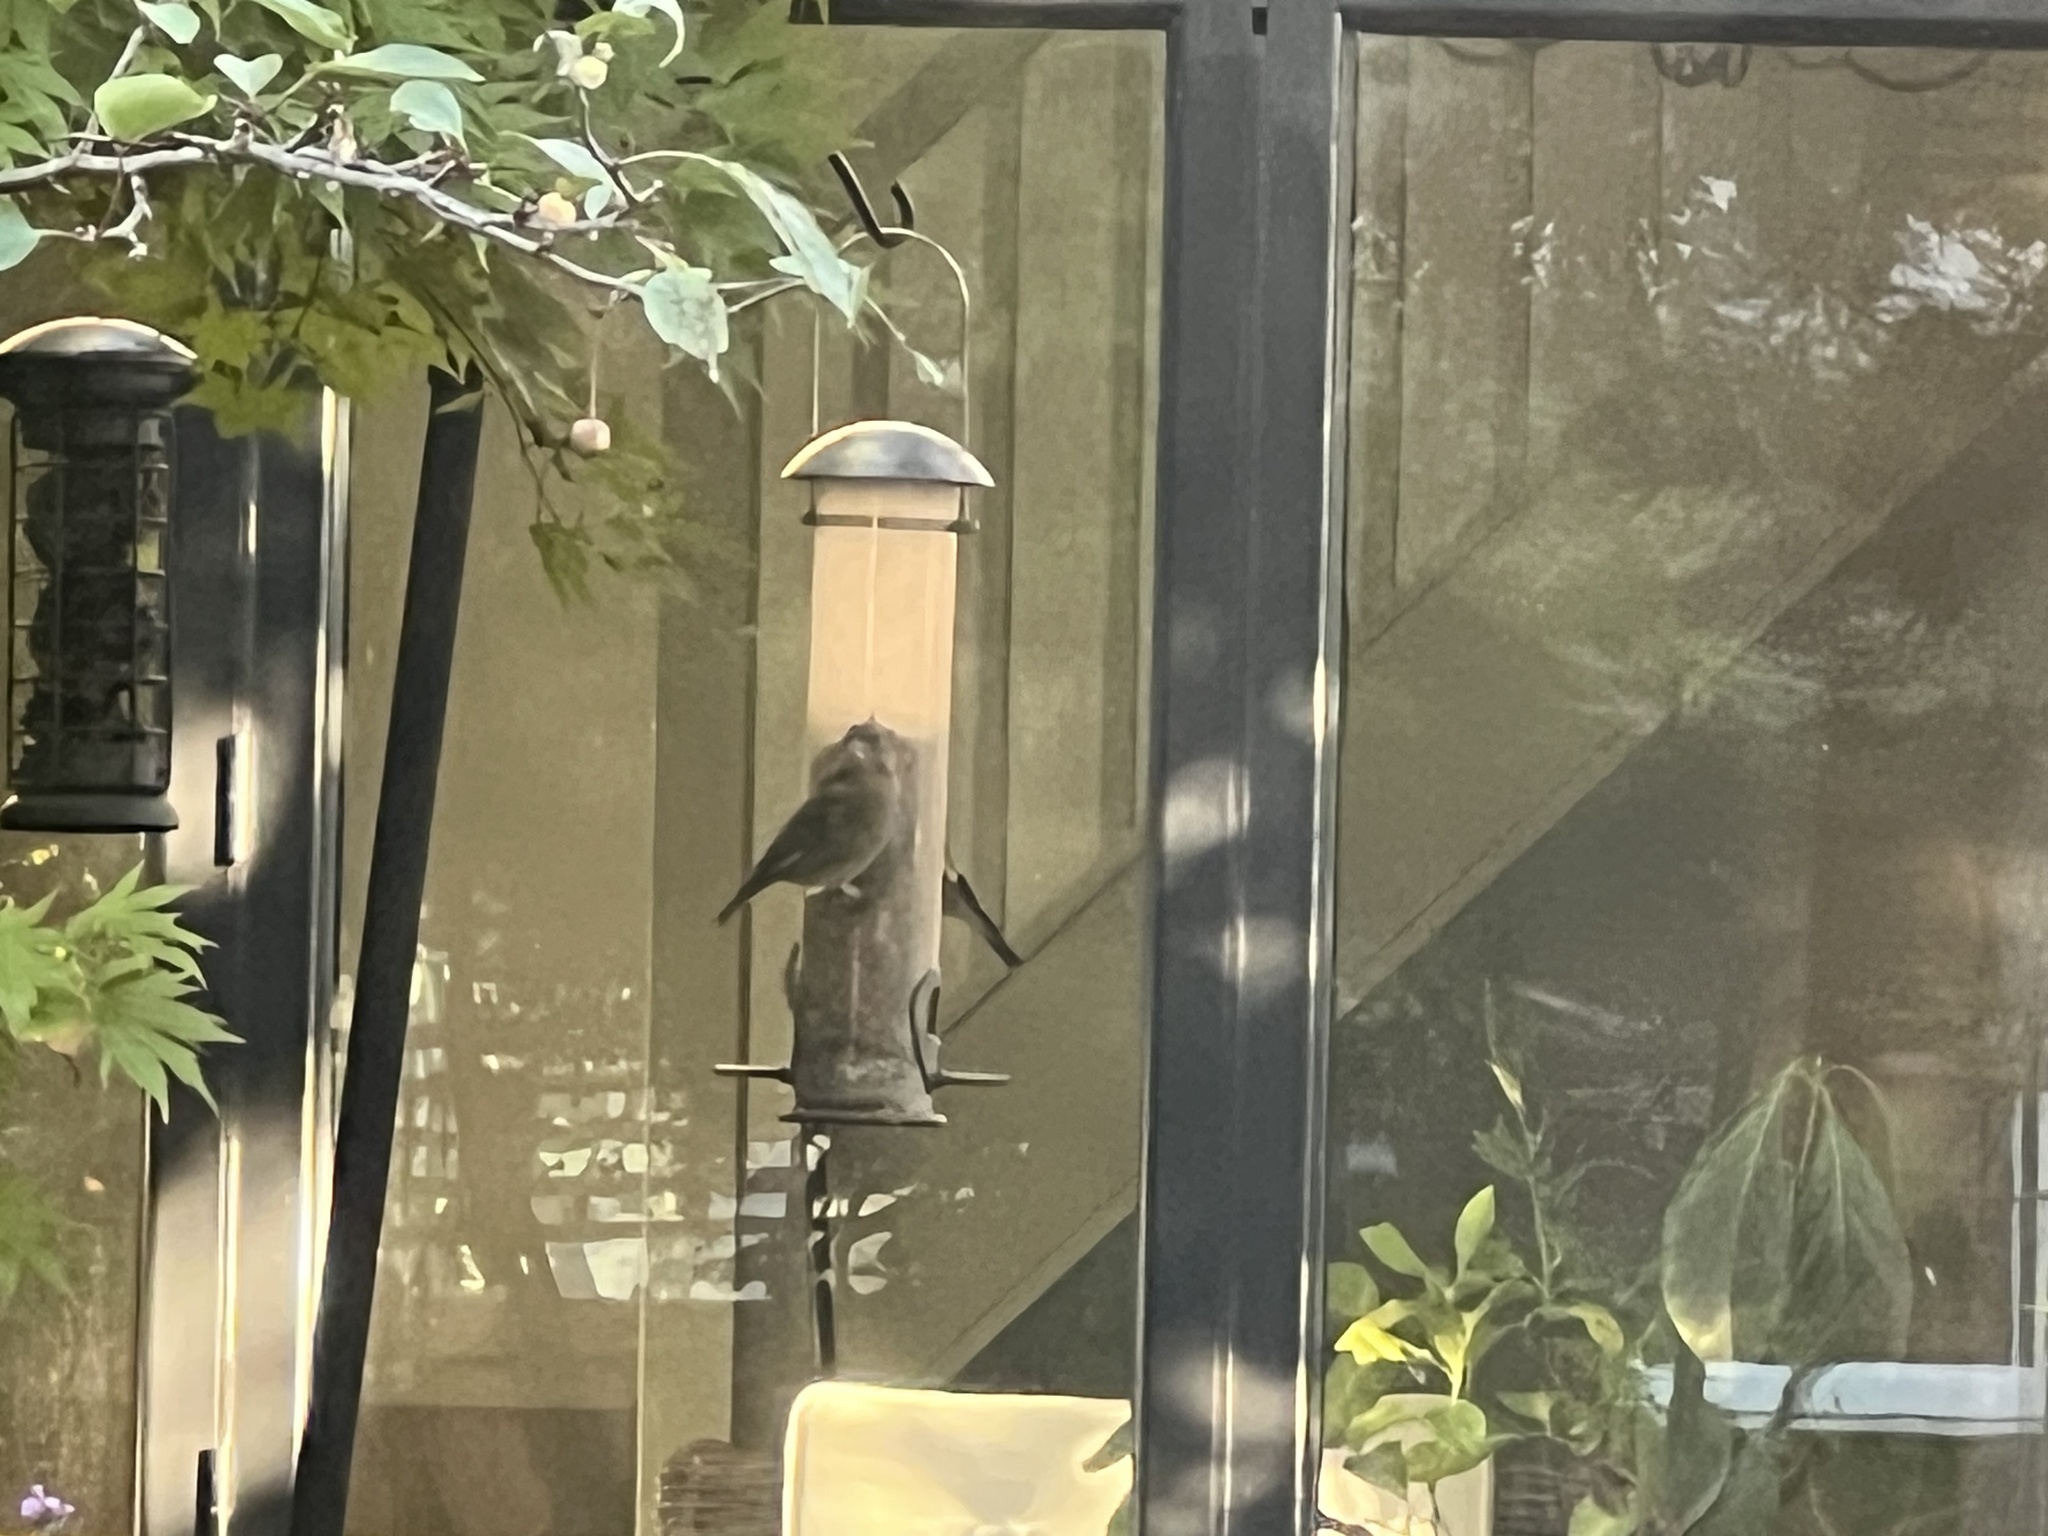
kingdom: Plantae
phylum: Tracheophyta
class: Liliopsida
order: Poales
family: Poaceae
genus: Chloris
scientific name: Chloris chloris
